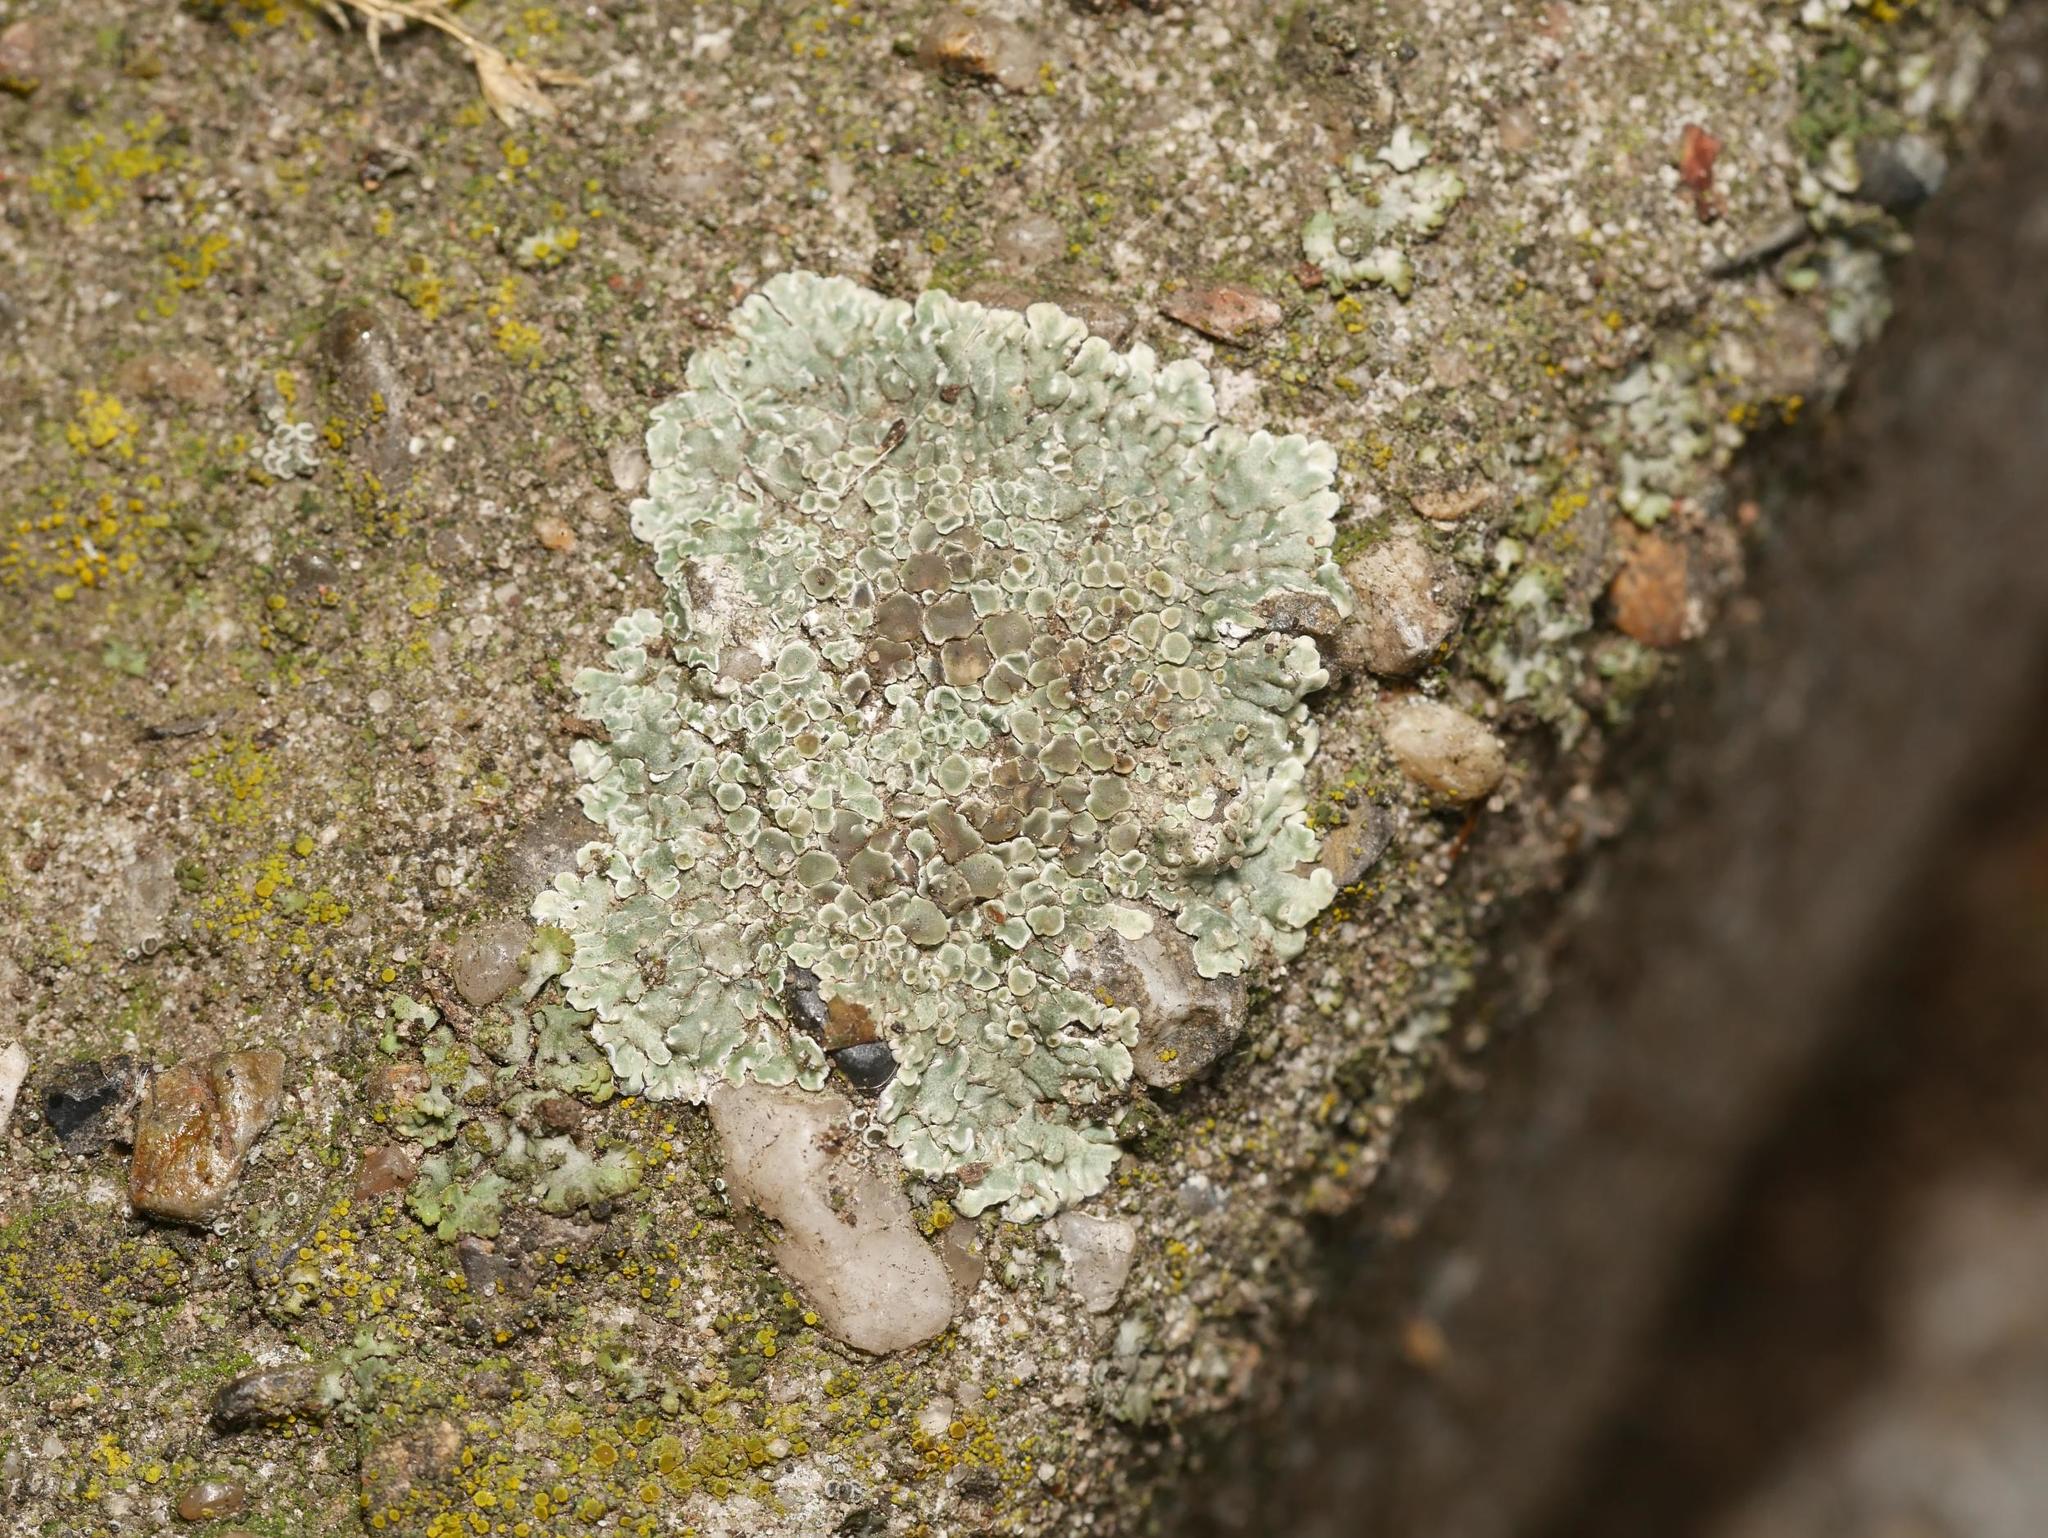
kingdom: Fungi
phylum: Ascomycota
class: Lecanoromycetes
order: Lecanorales
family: Lecanoraceae
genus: Protoparmeliopsis
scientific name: Protoparmeliopsis muralis
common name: Stonewall rim lichen
